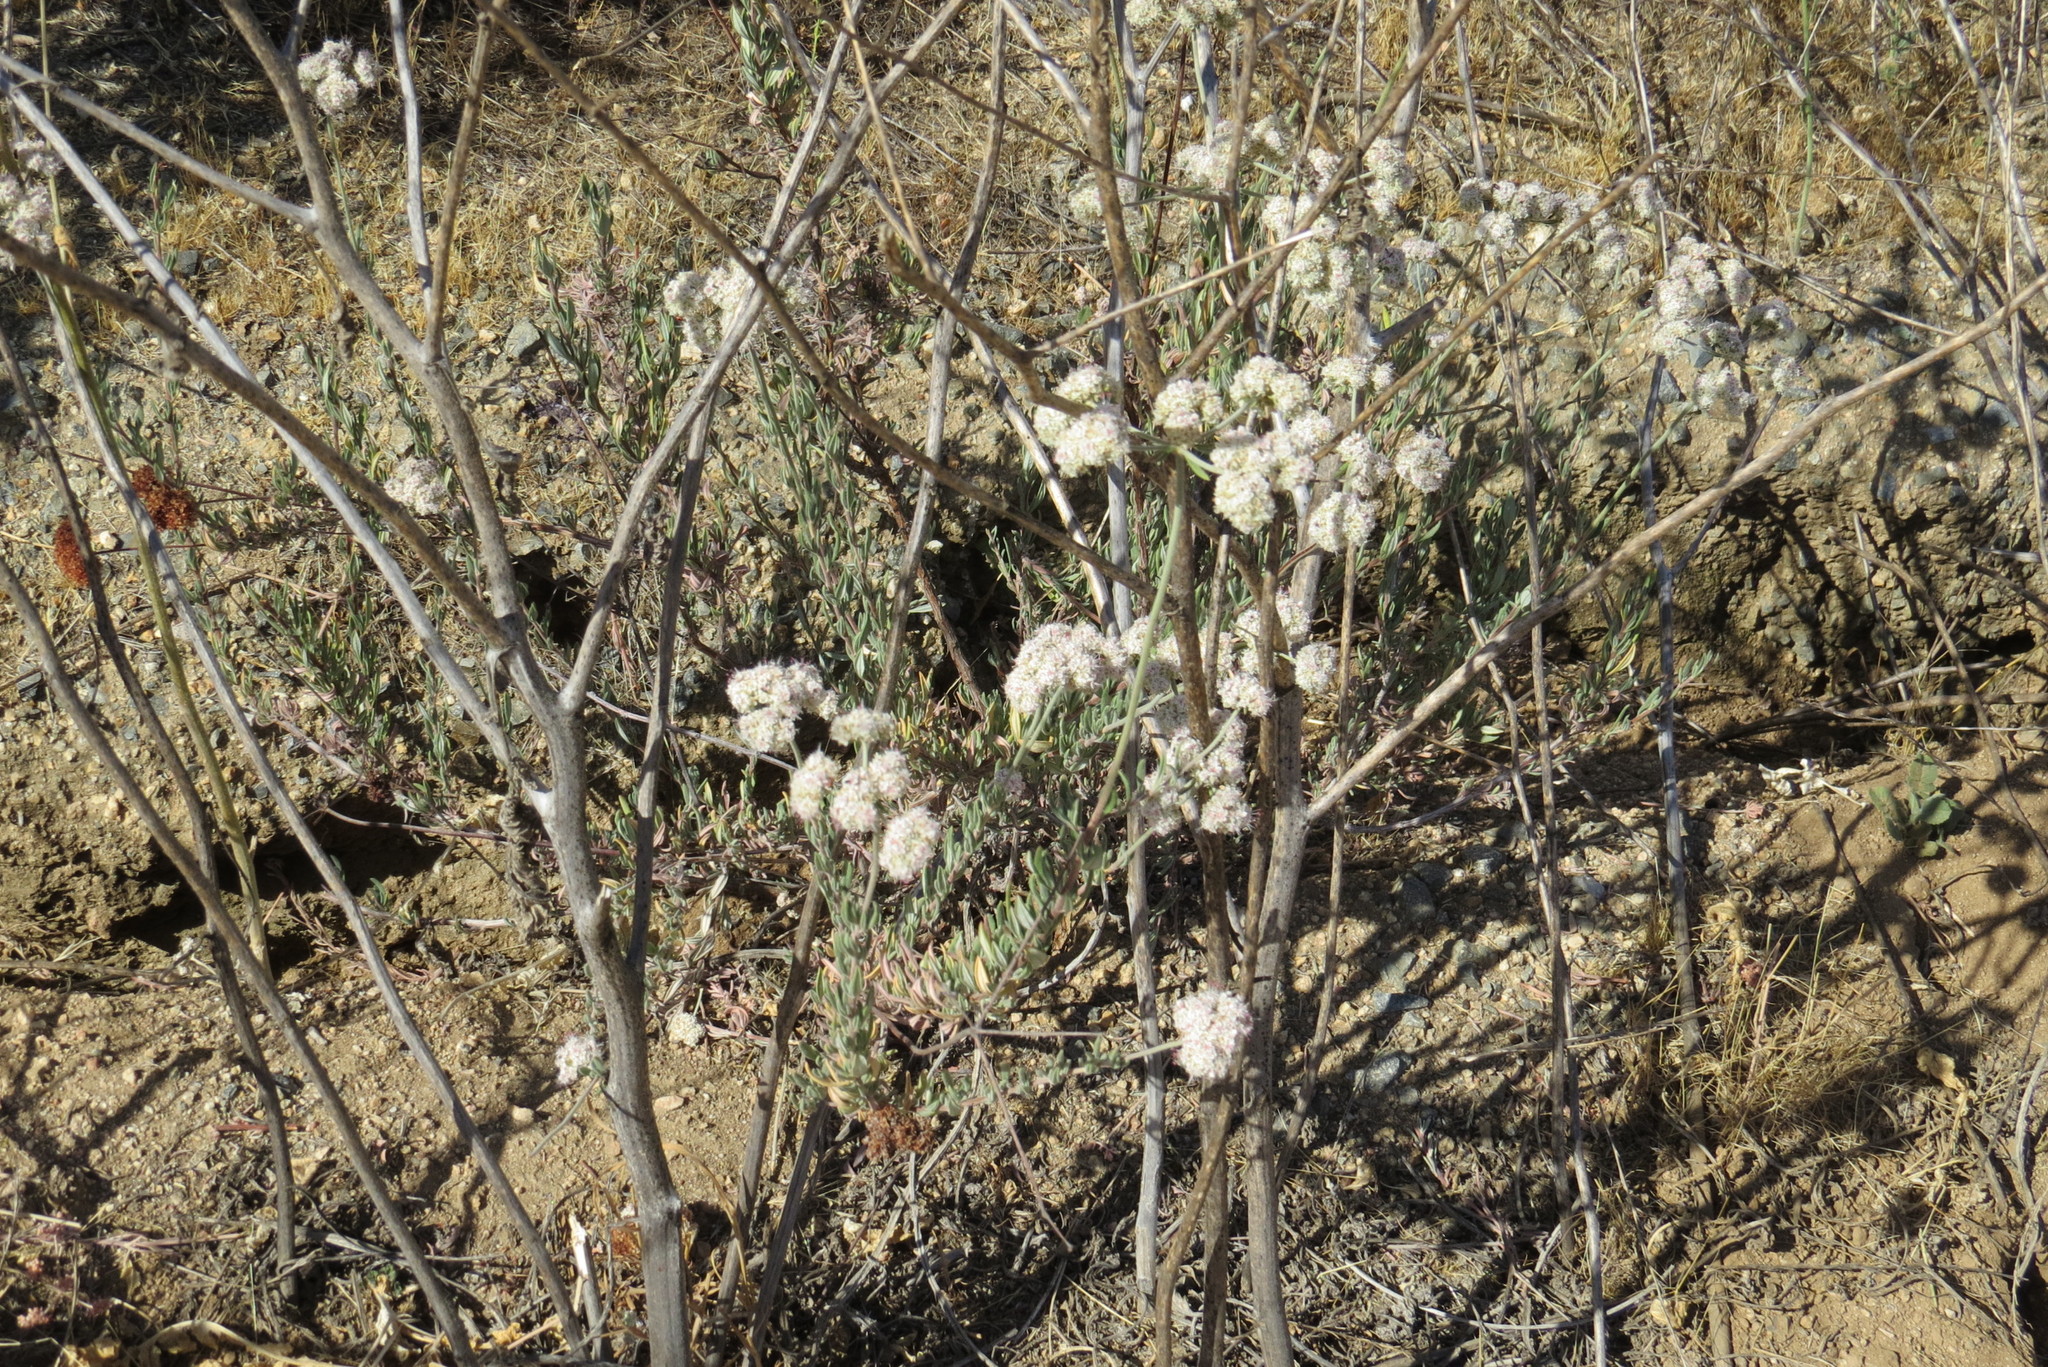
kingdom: Plantae
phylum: Tracheophyta
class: Magnoliopsida
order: Caryophyllales
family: Polygonaceae
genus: Eriogonum
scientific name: Eriogonum fasciculatum
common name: California wild buckwheat
